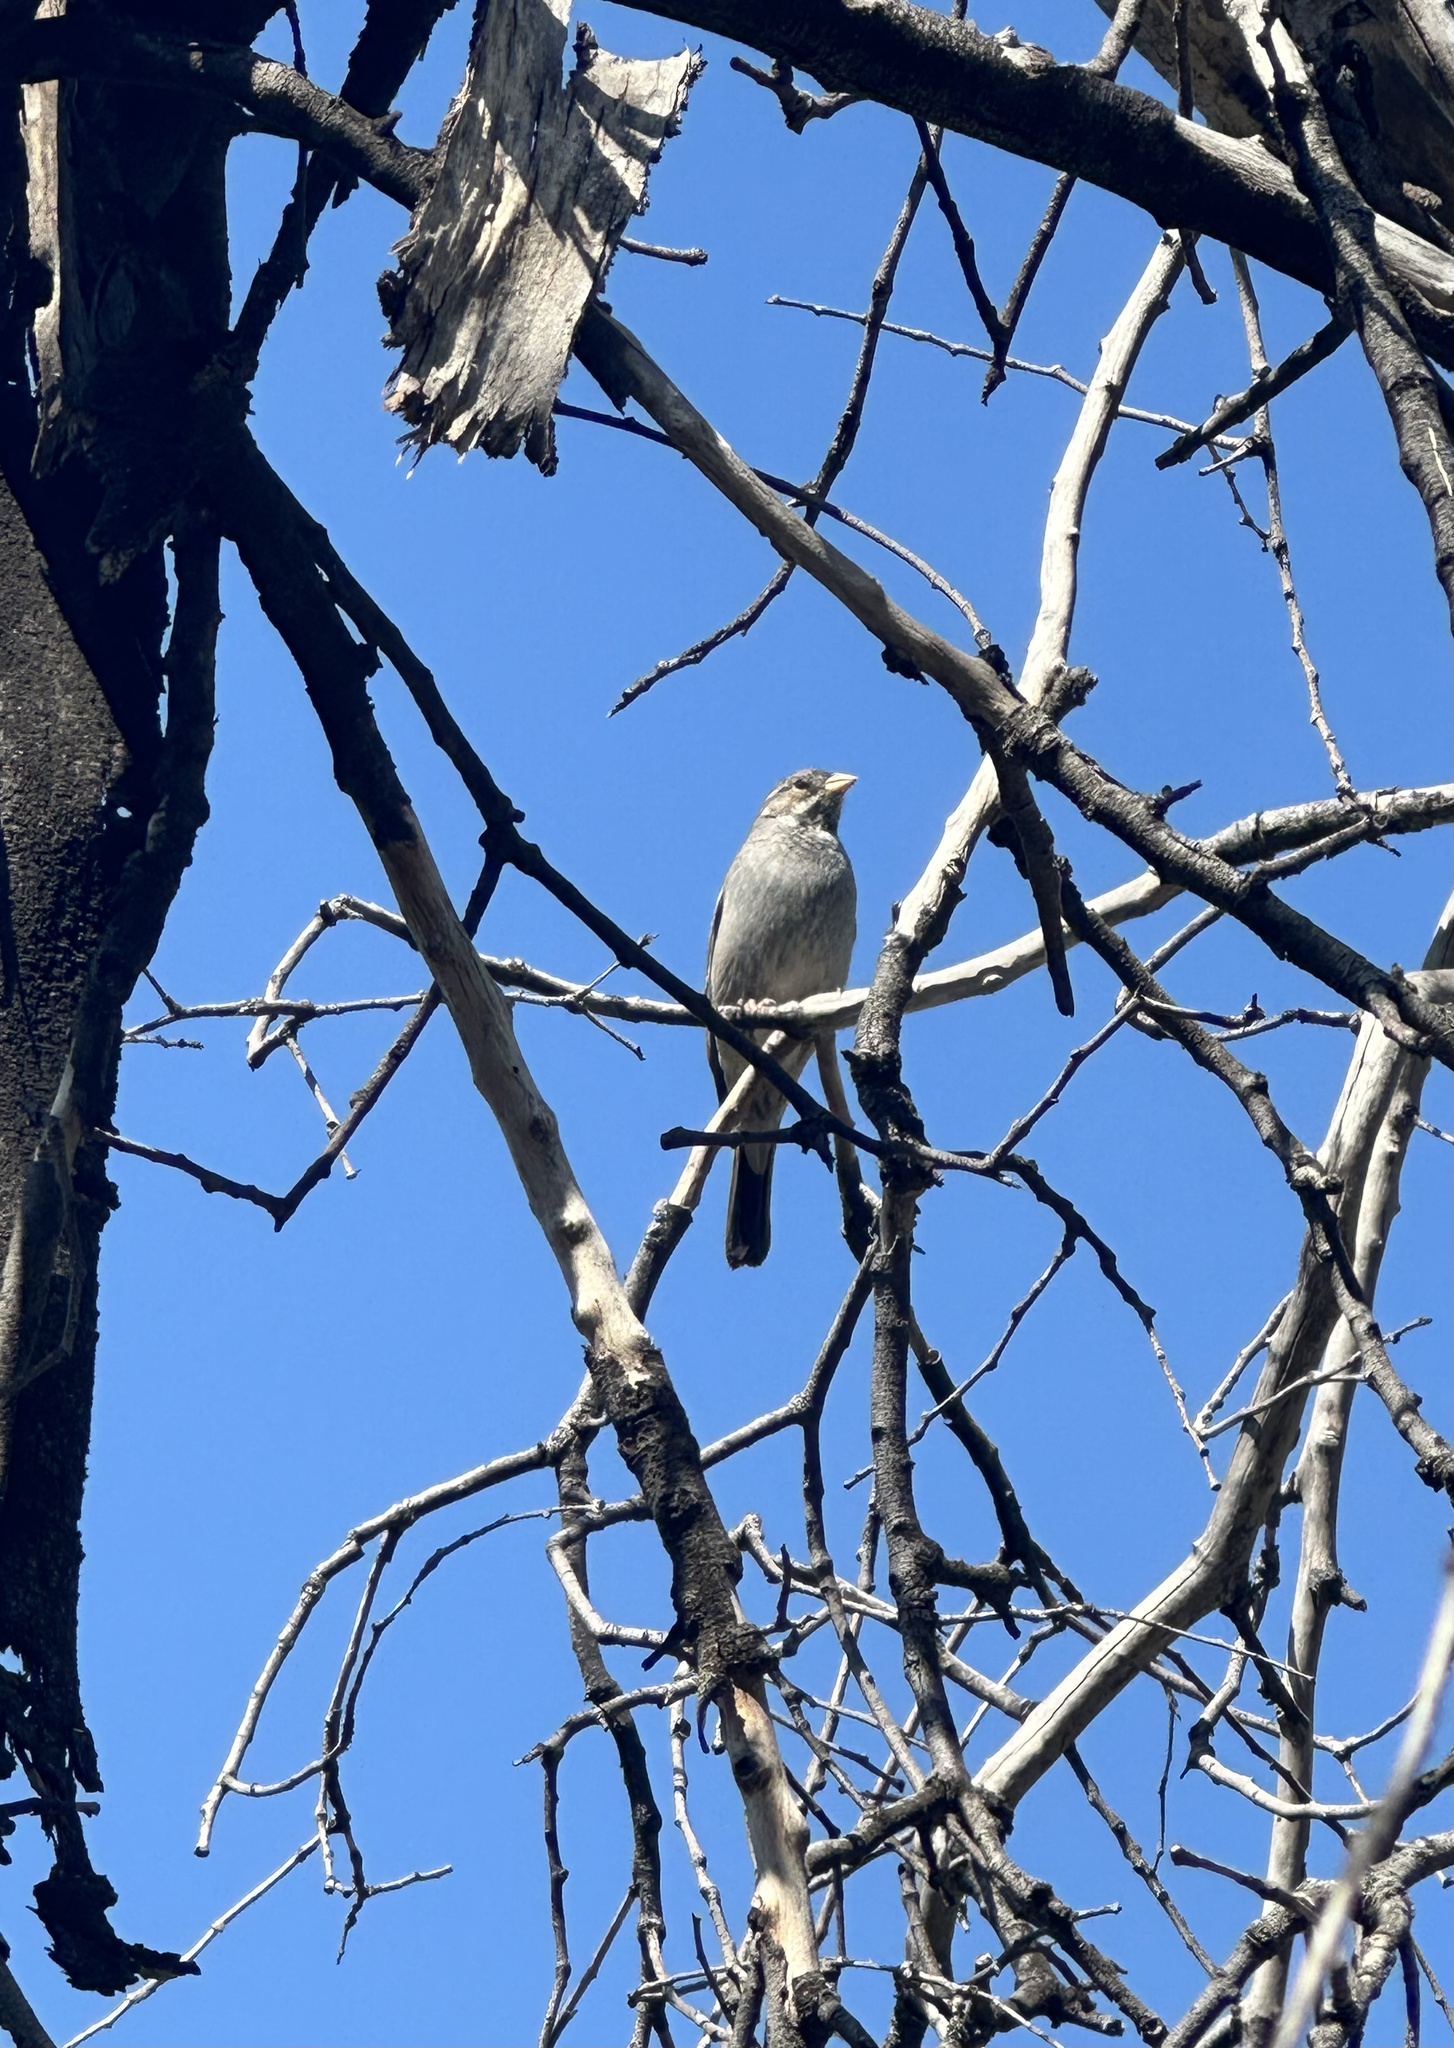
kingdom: Animalia
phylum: Chordata
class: Aves
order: Passeriformes
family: Thraupidae
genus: Rhopospina
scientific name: Rhopospina fruticeti
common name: Mourning sierra finch
